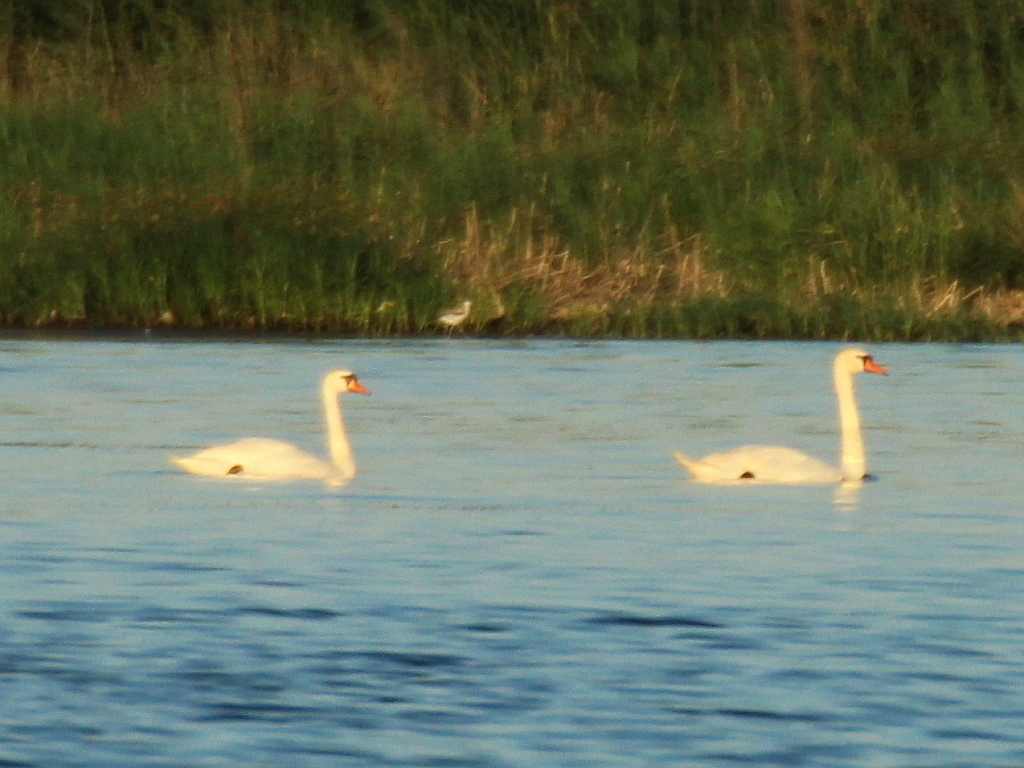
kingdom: Animalia
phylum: Chordata
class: Aves
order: Anseriformes
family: Anatidae
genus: Cygnus
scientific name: Cygnus olor
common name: Mute swan
